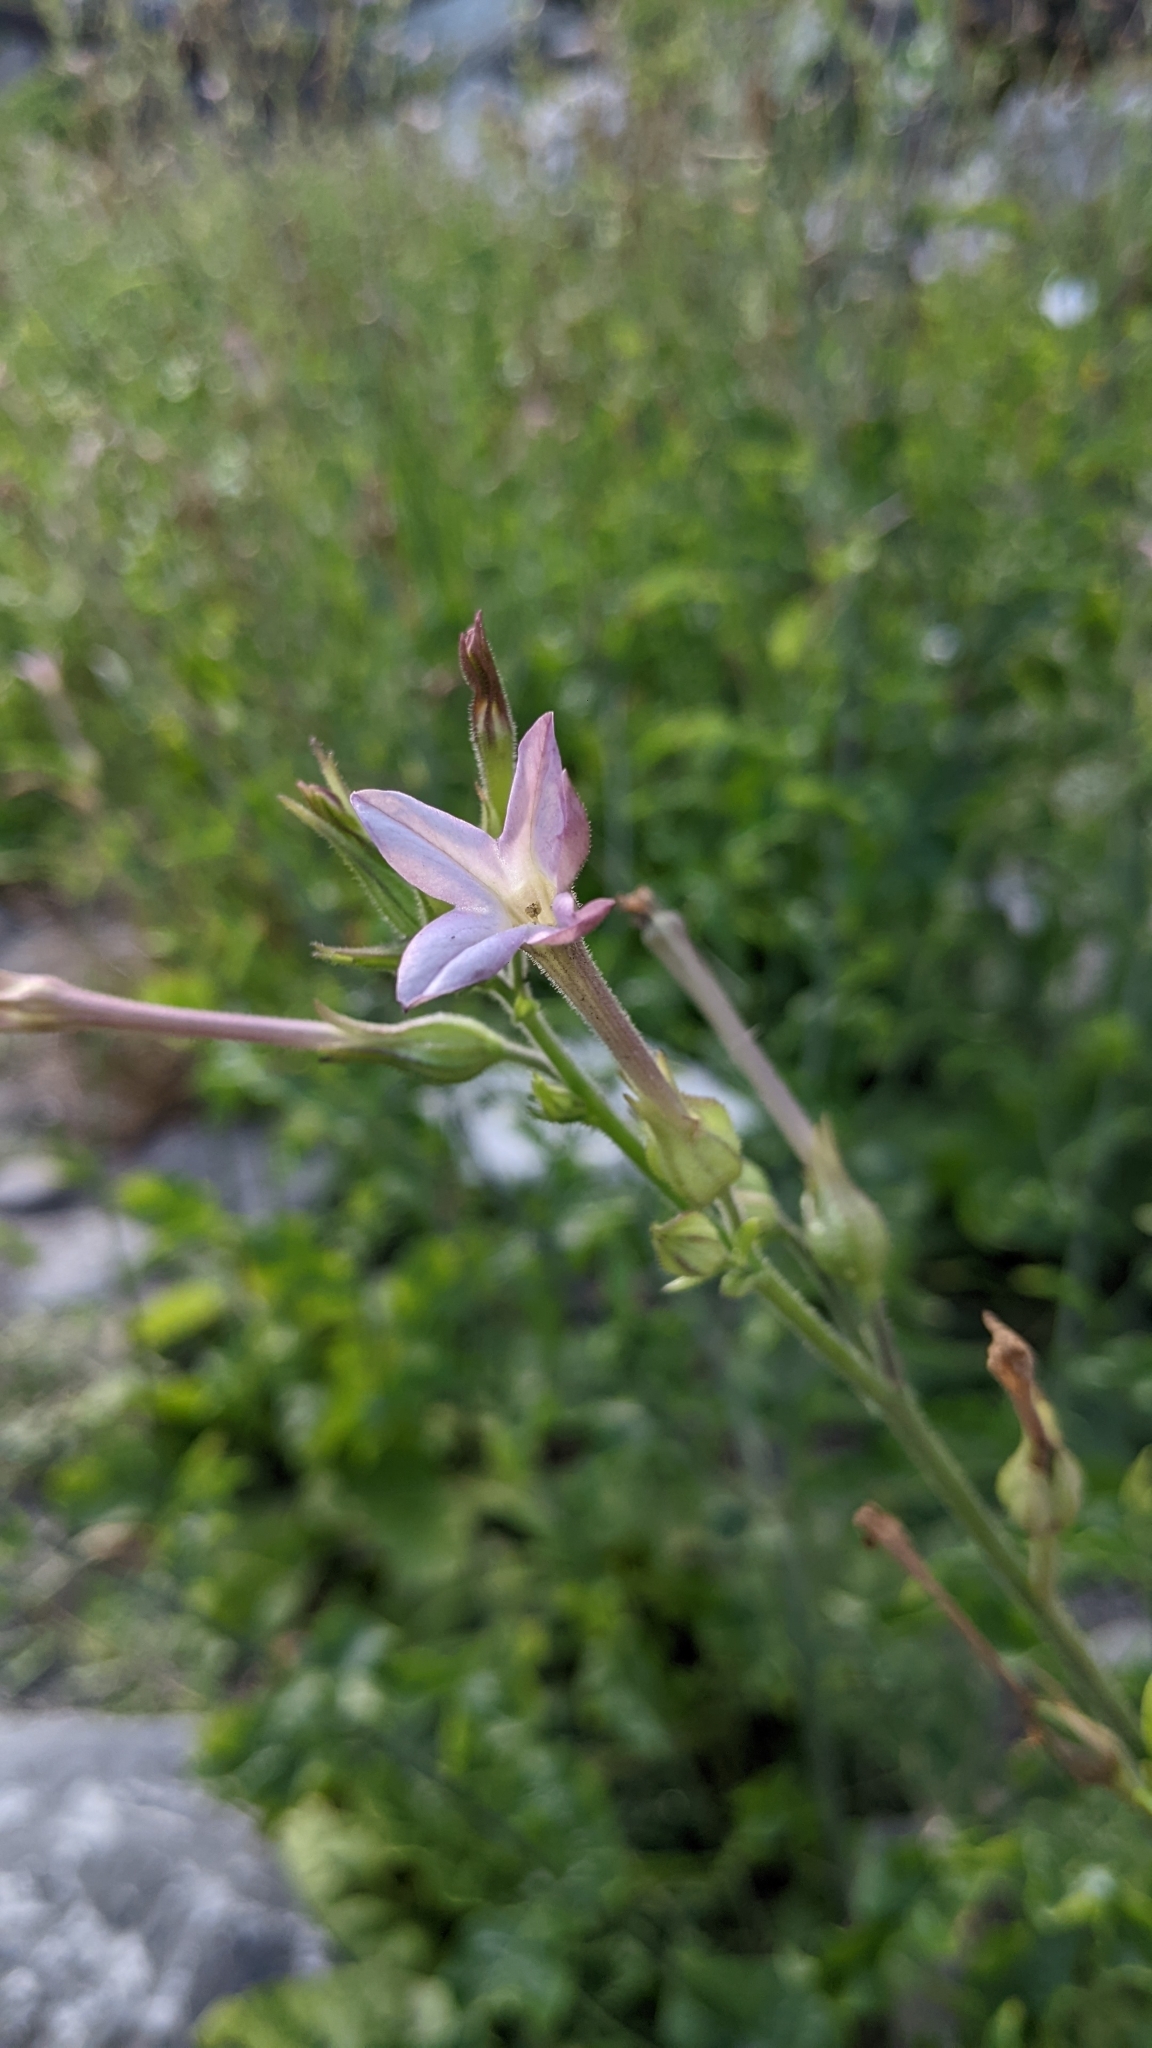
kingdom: Plantae
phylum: Tracheophyta
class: Magnoliopsida
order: Solanales
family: Solanaceae
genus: Nicotiana
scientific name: Nicotiana plumbaginifolia
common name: Tex-mex tobacco
